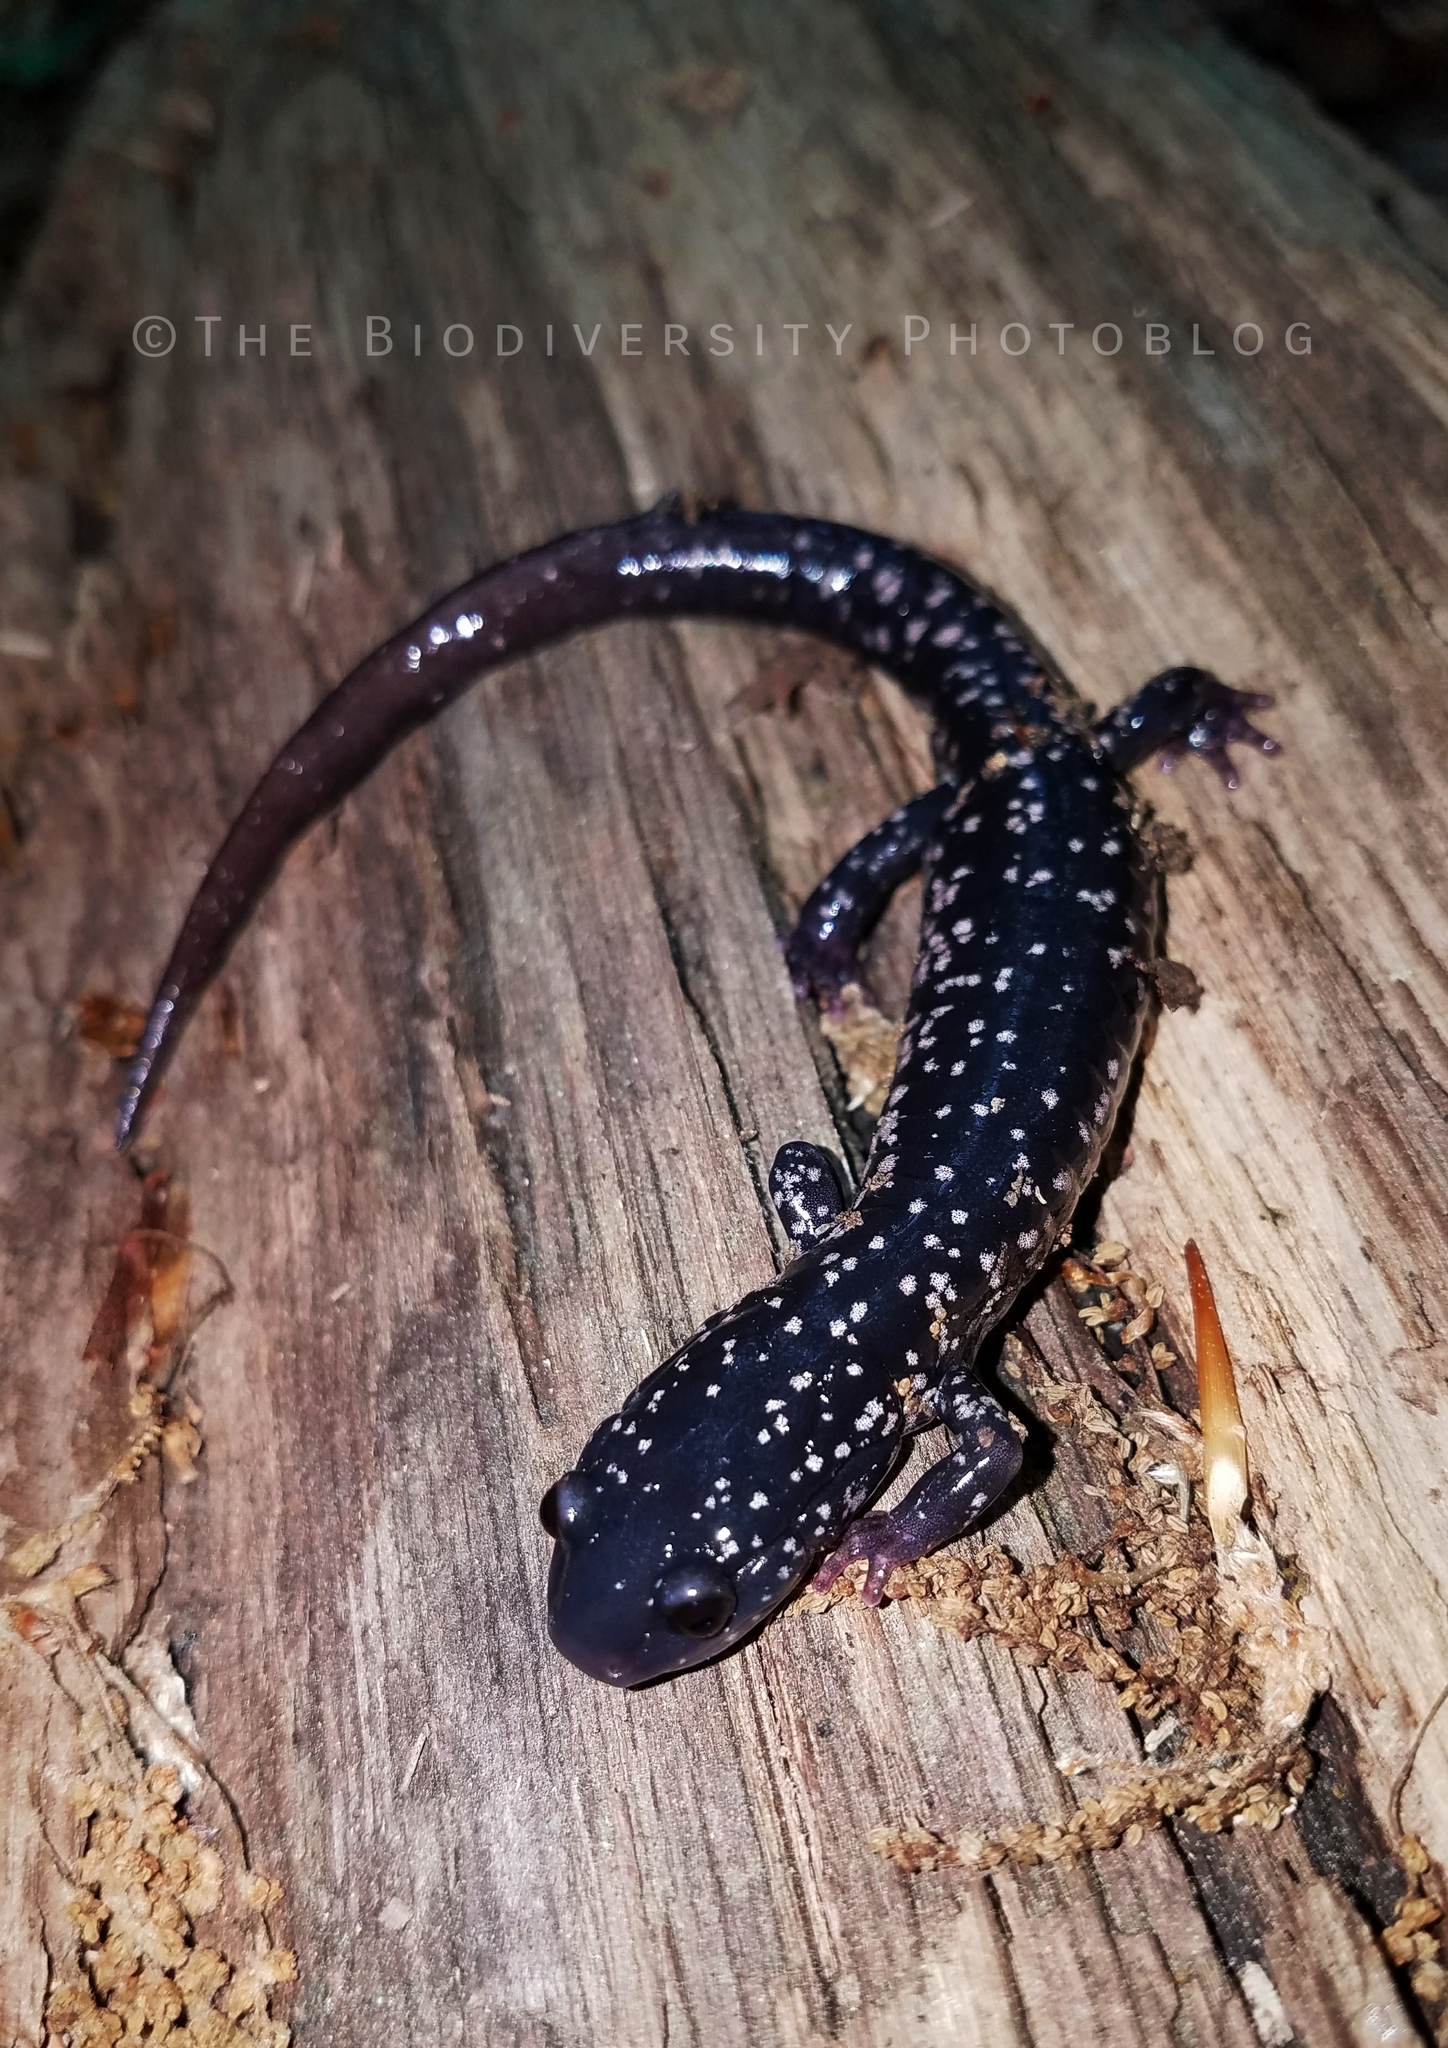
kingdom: Animalia
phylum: Chordata
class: Amphibia
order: Caudata
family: Plethodontidae
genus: Plethodon
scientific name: Plethodon
